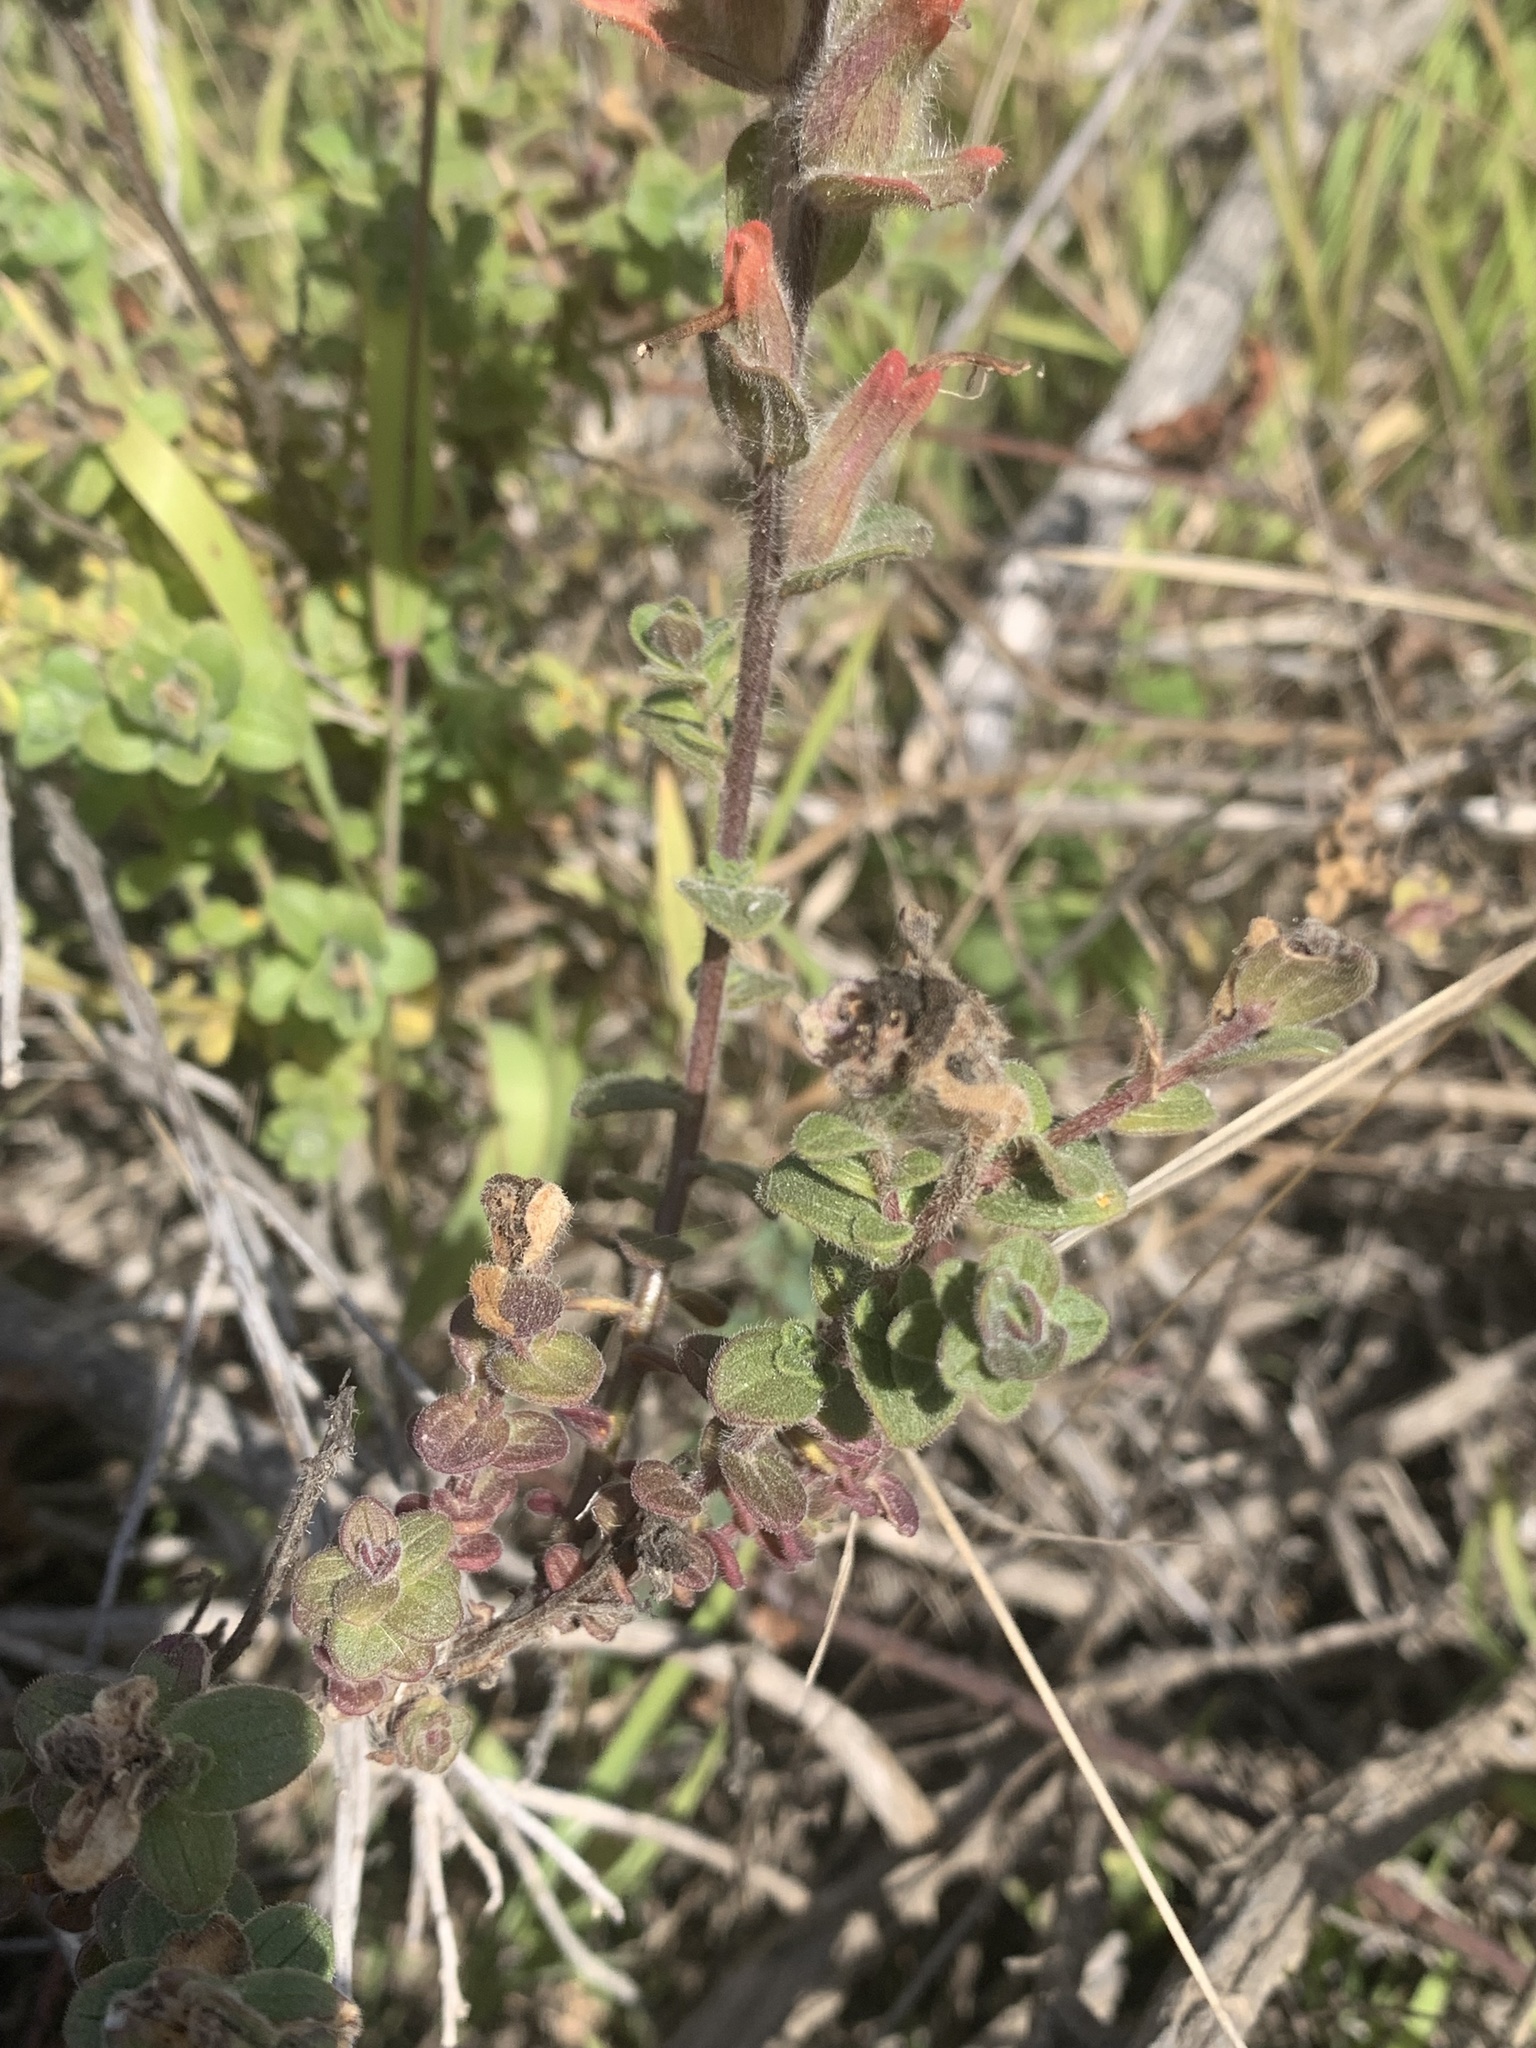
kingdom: Plantae
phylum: Tracheophyta
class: Magnoliopsida
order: Lamiales
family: Orobanchaceae
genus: Castilleja
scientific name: Castilleja latifolia
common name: Monterey indian paintbrush
